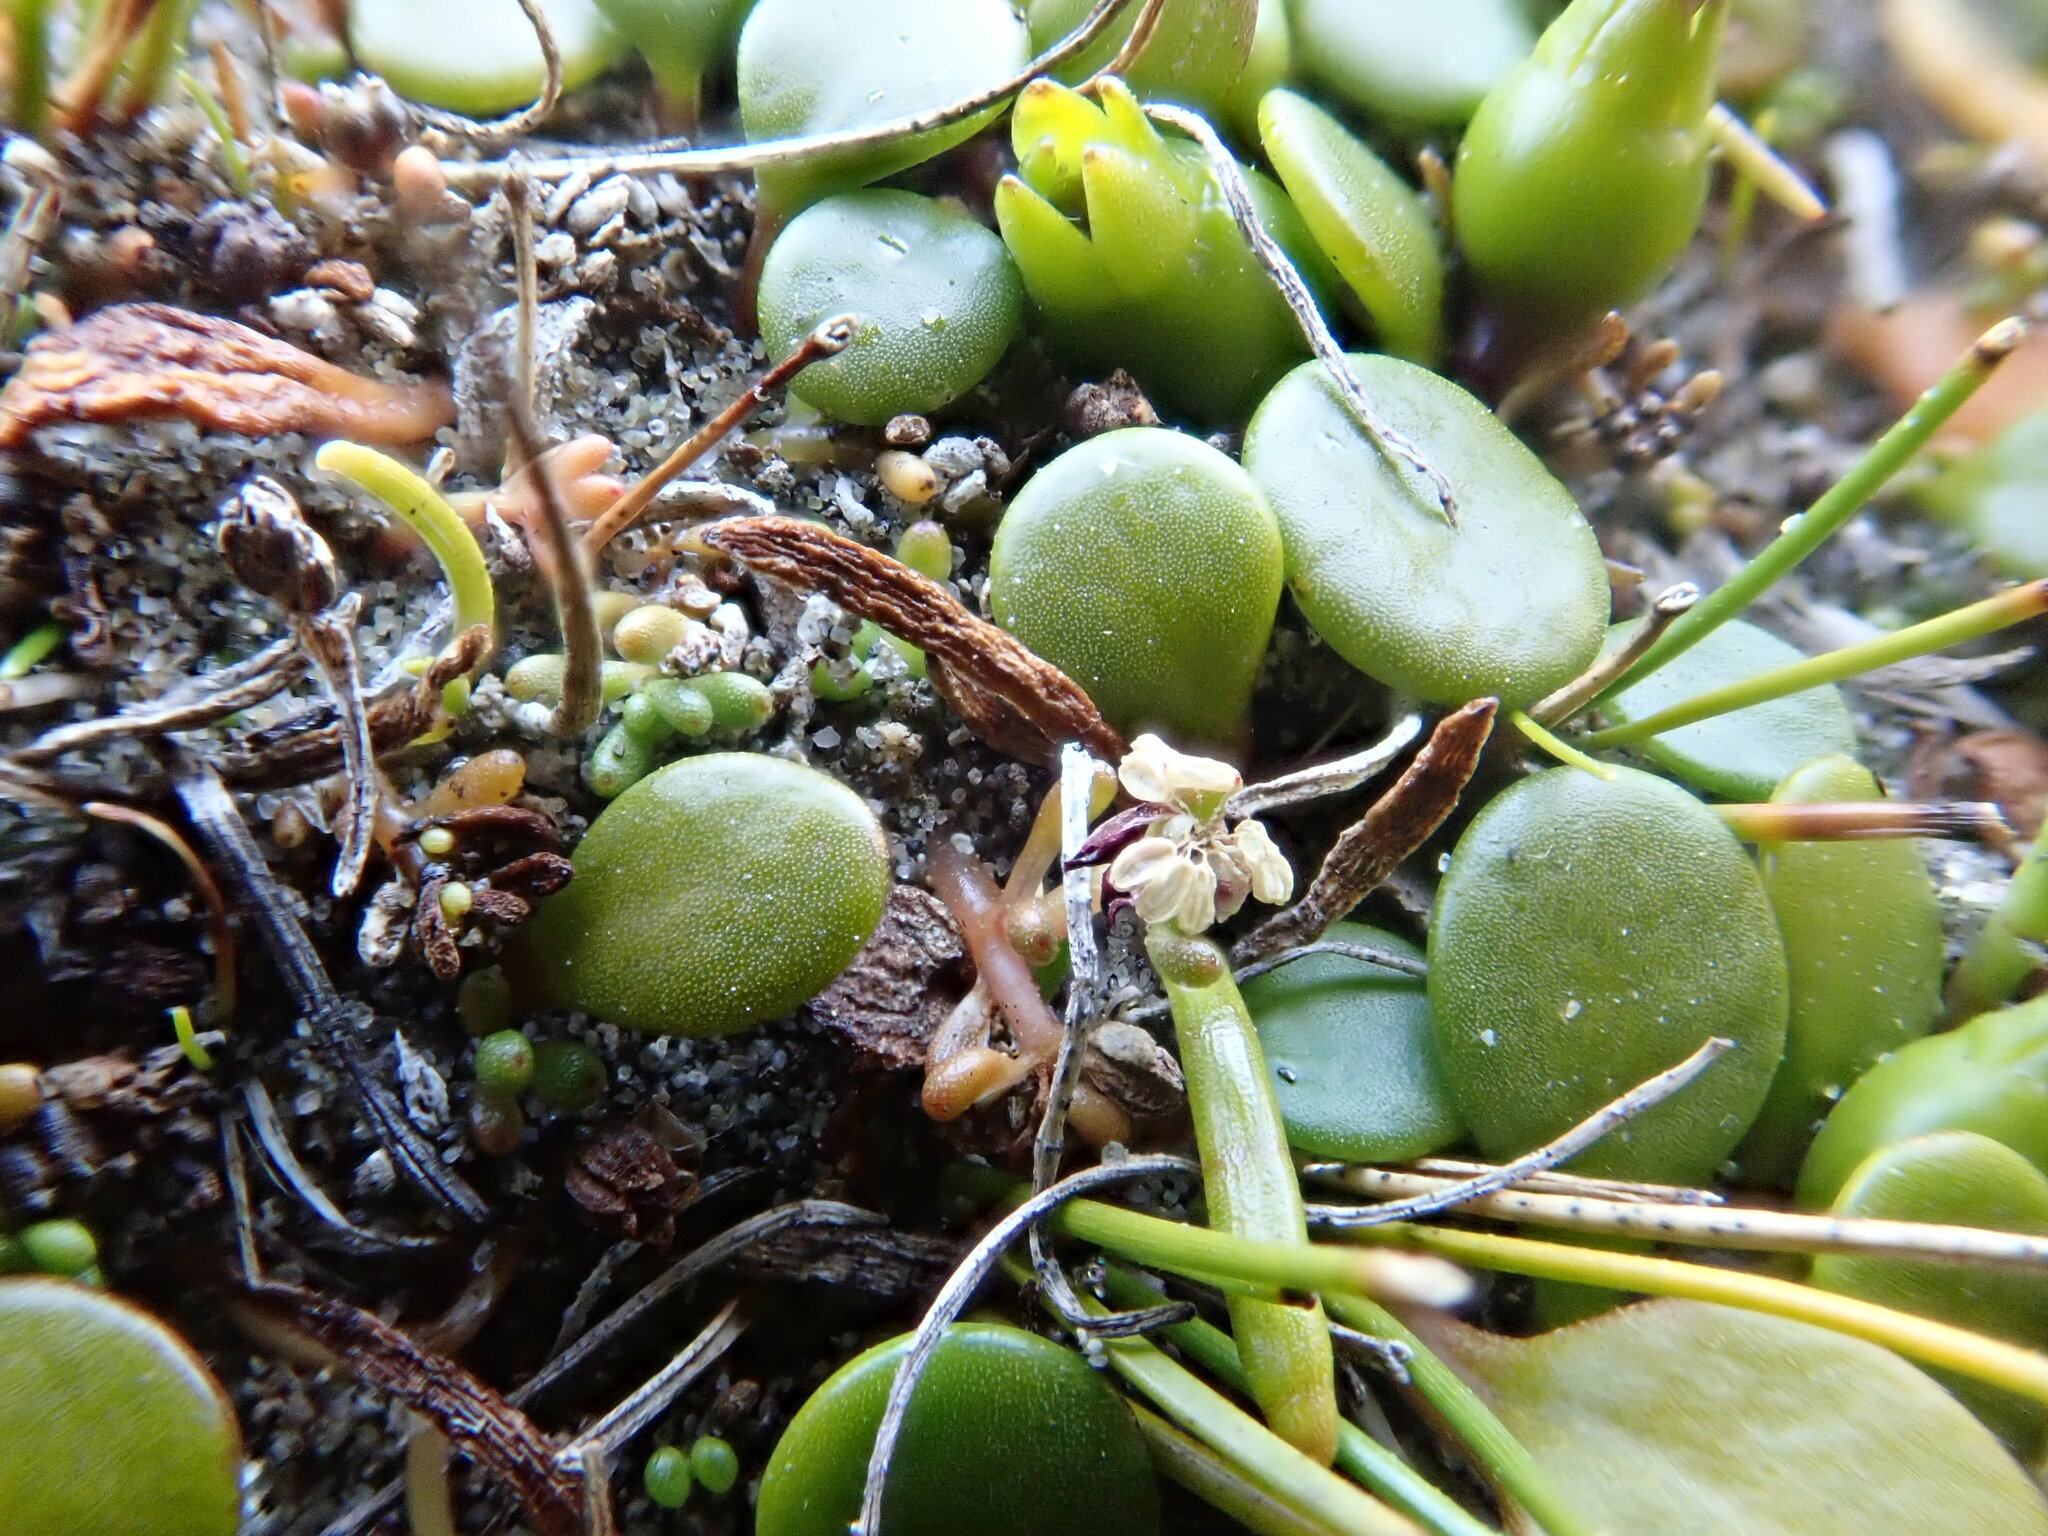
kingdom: Plantae
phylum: Tracheophyta
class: Magnoliopsida
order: Saxifragales
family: Haloragaceae
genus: Myriophyllum
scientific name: Myriophyllum votschii
